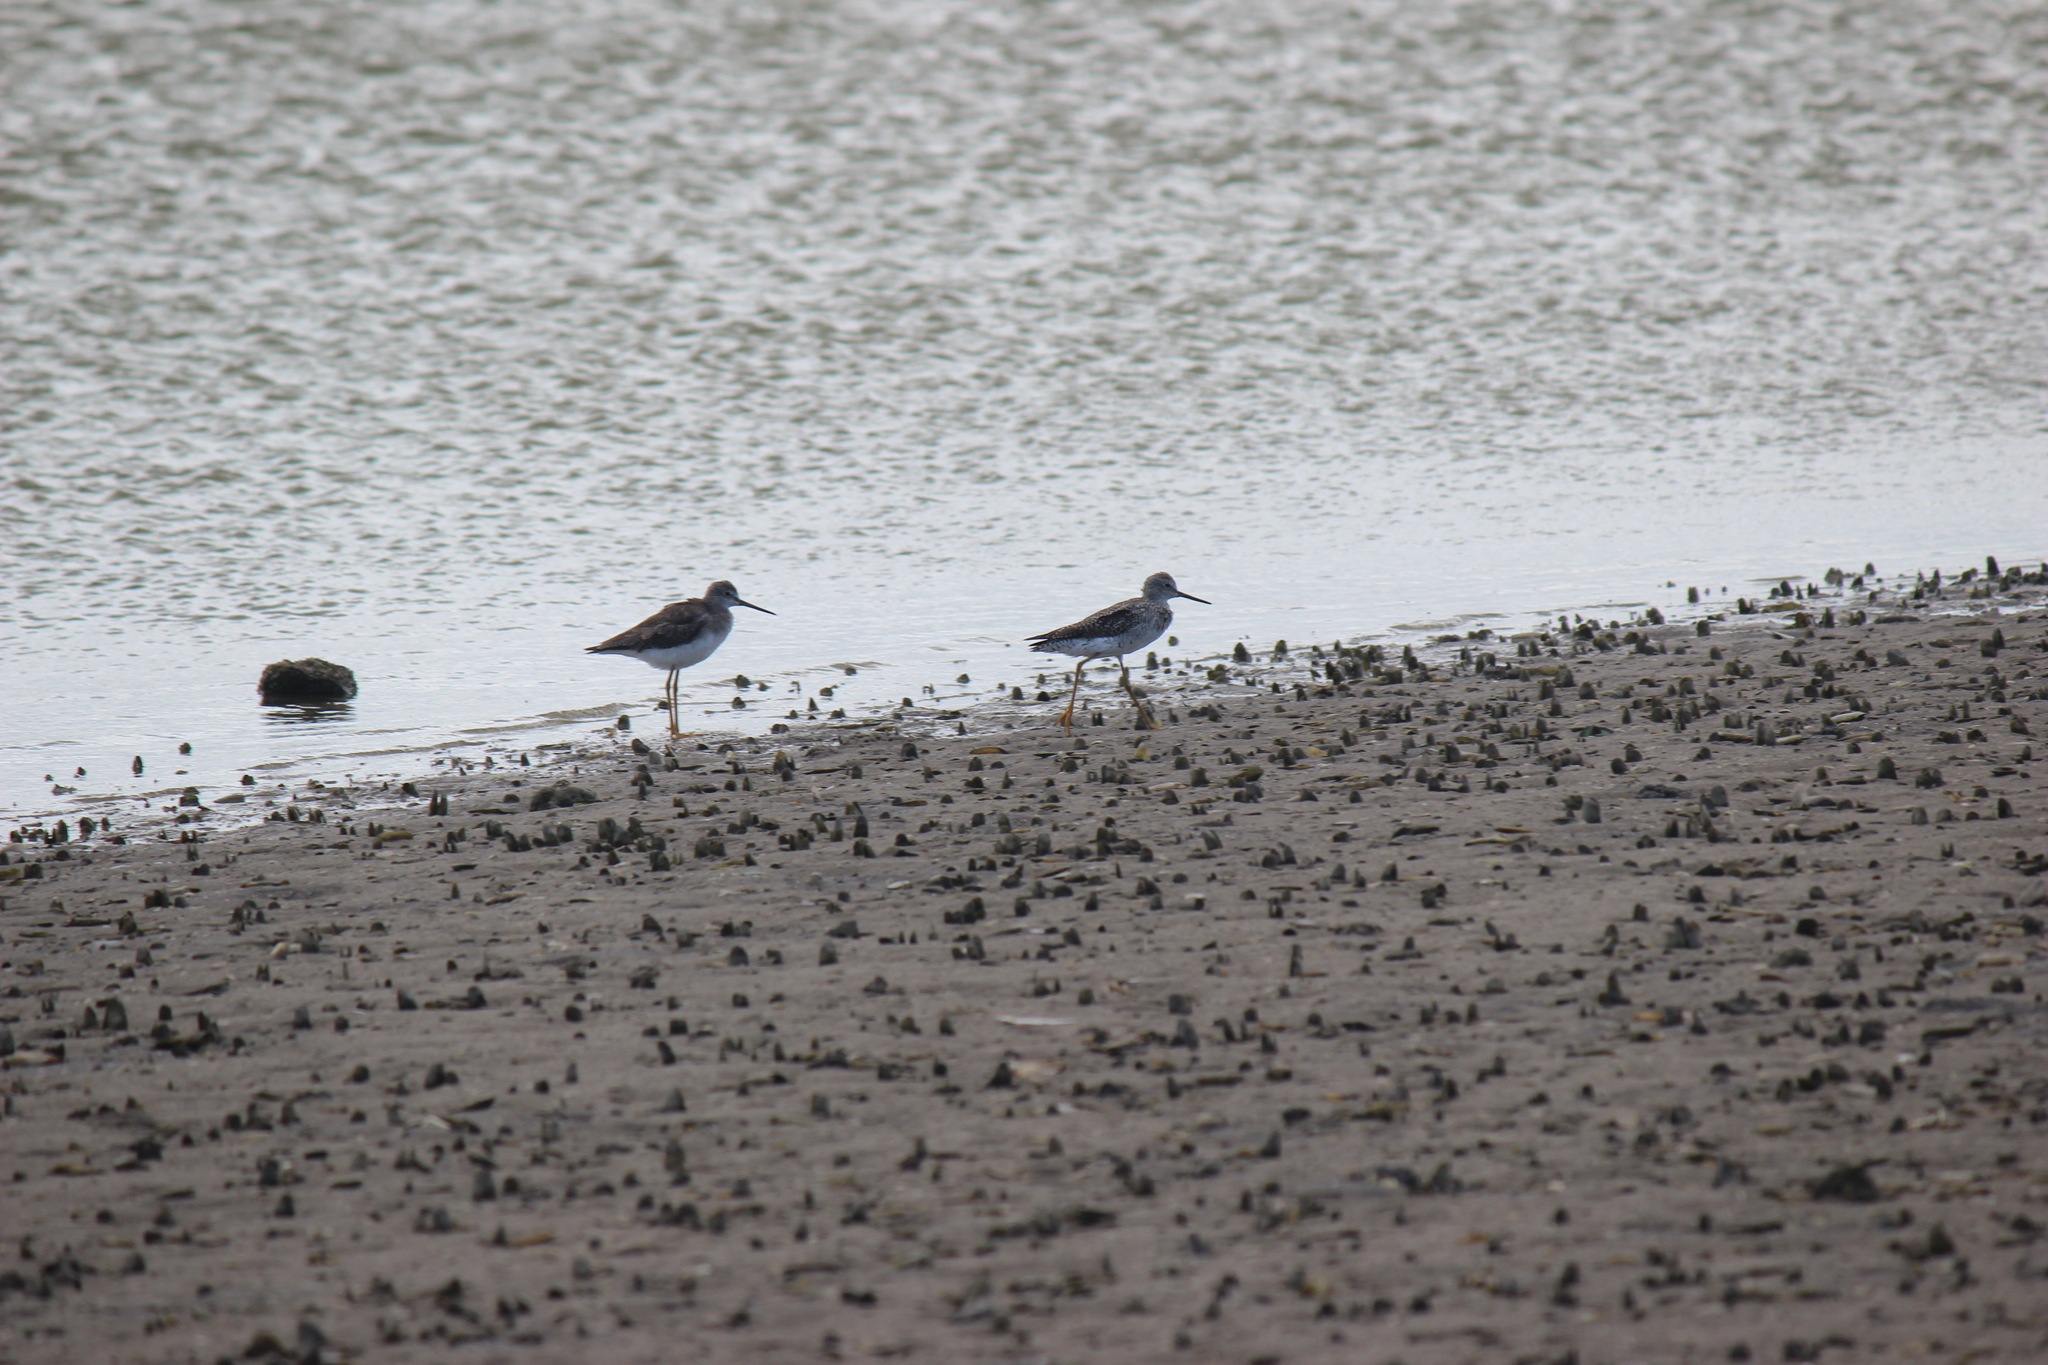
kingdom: Animalia
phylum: Chordata
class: Aves
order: Charadriiformes
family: Scolopacidae
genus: Tringa
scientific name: Tringa melanoleuca
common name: Greater yellowlegs
